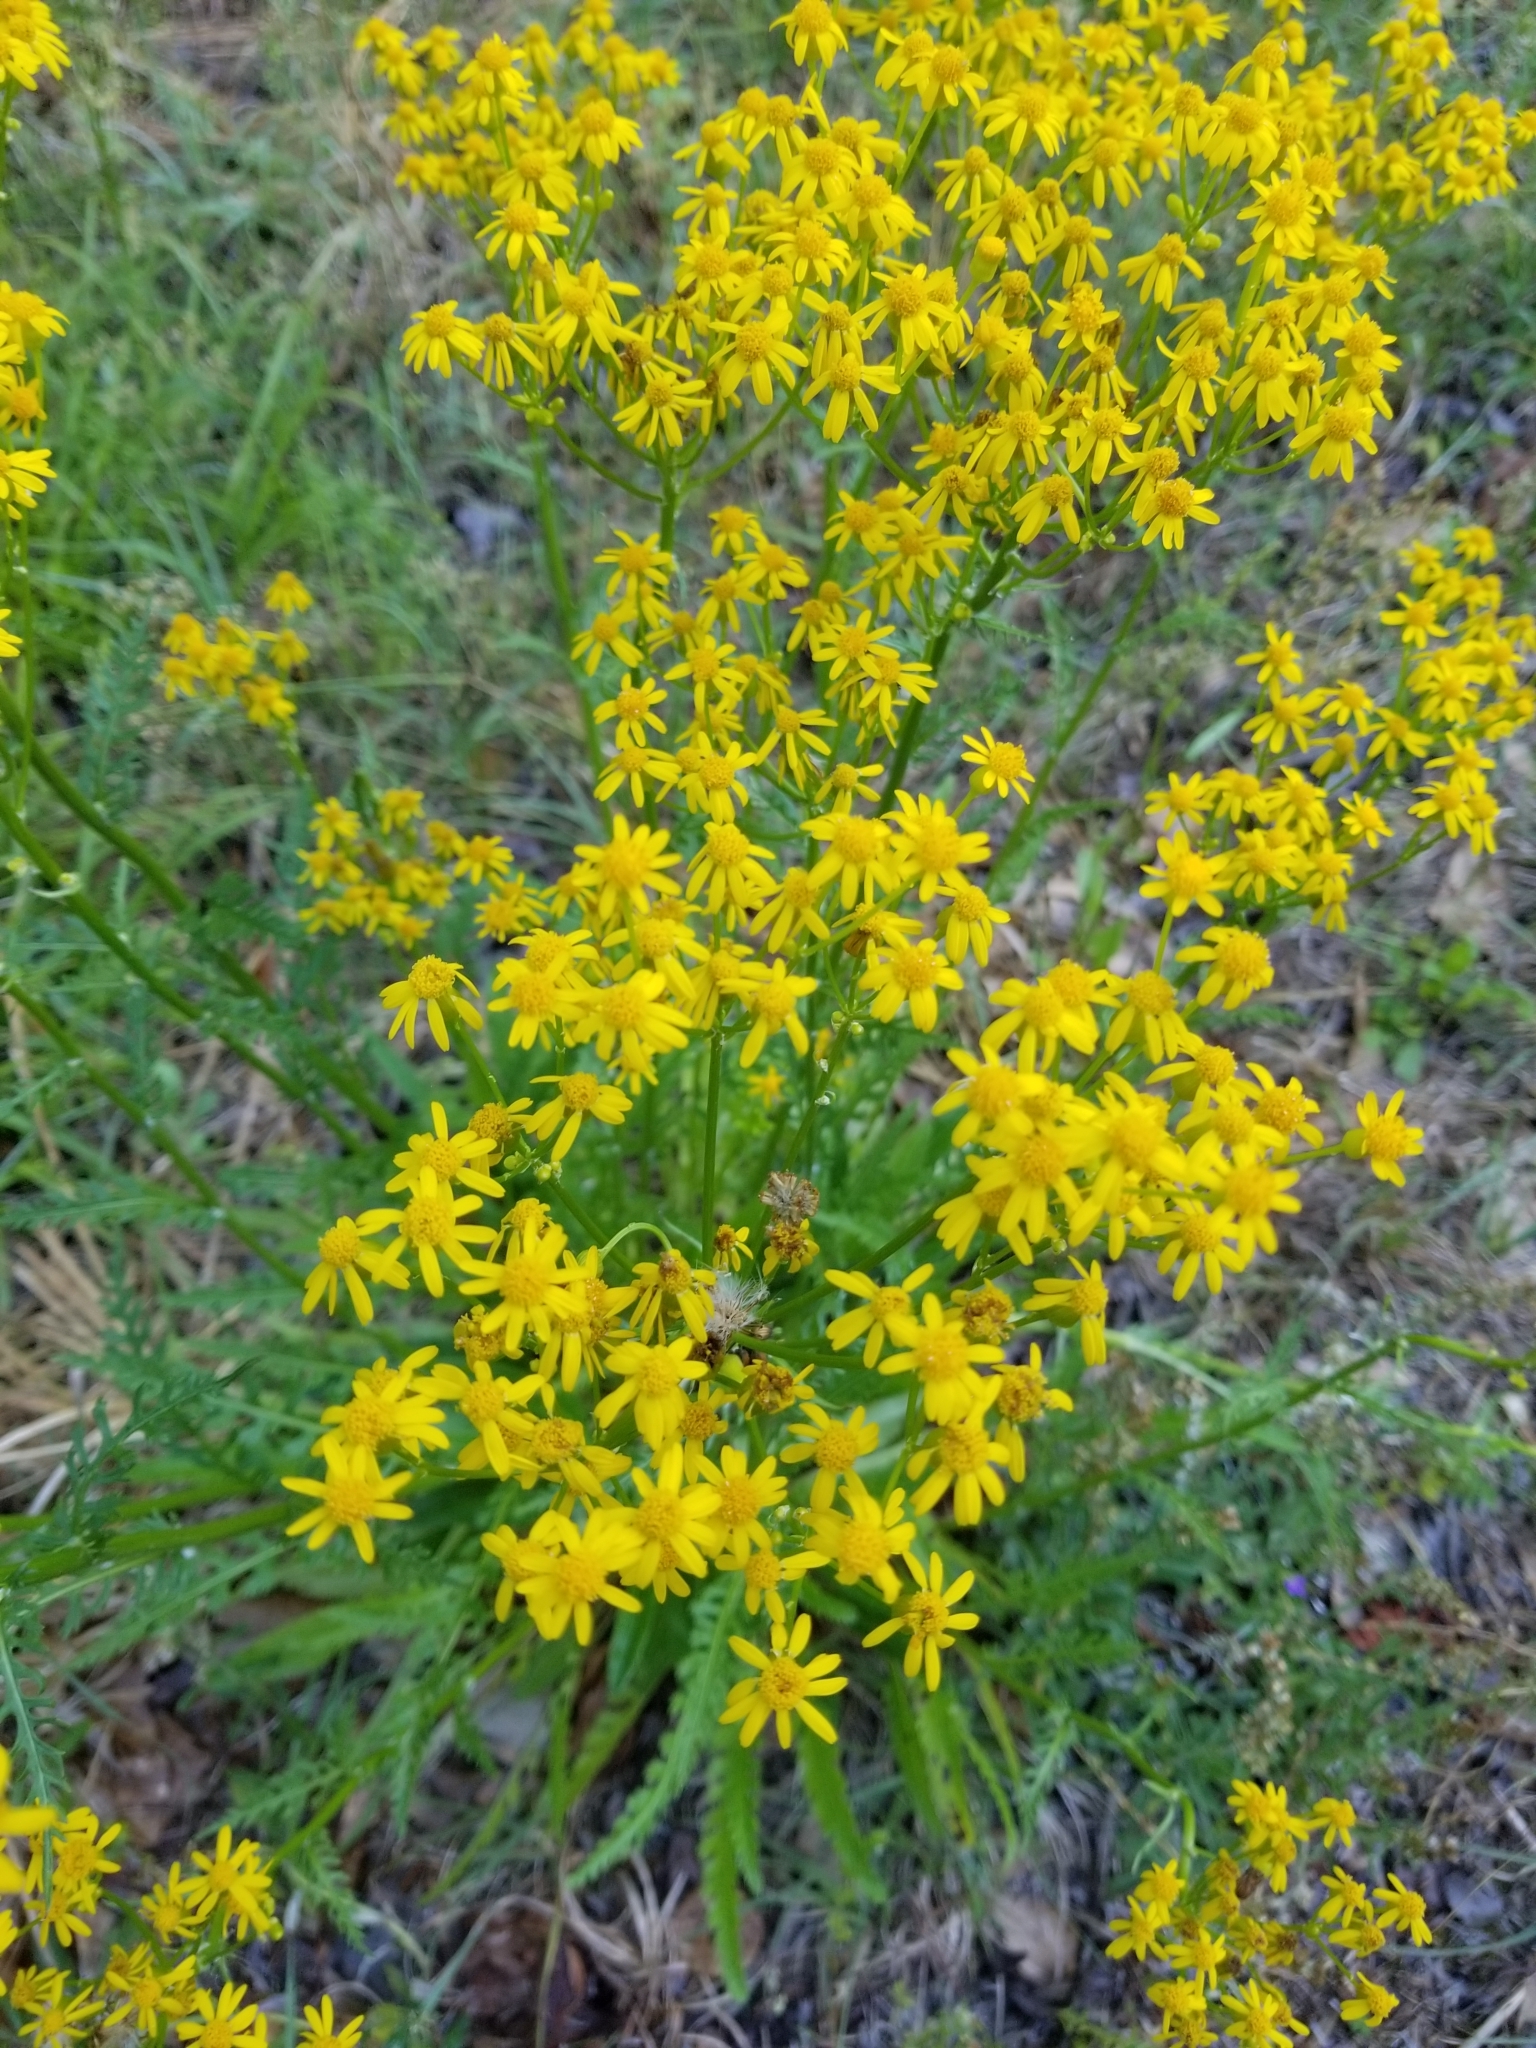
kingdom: Plantae
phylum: Tracheophyta
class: Magnoliopsida
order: Asterales
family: Asteraceae
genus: Packera
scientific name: Packera anonyma
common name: Small ragwort
